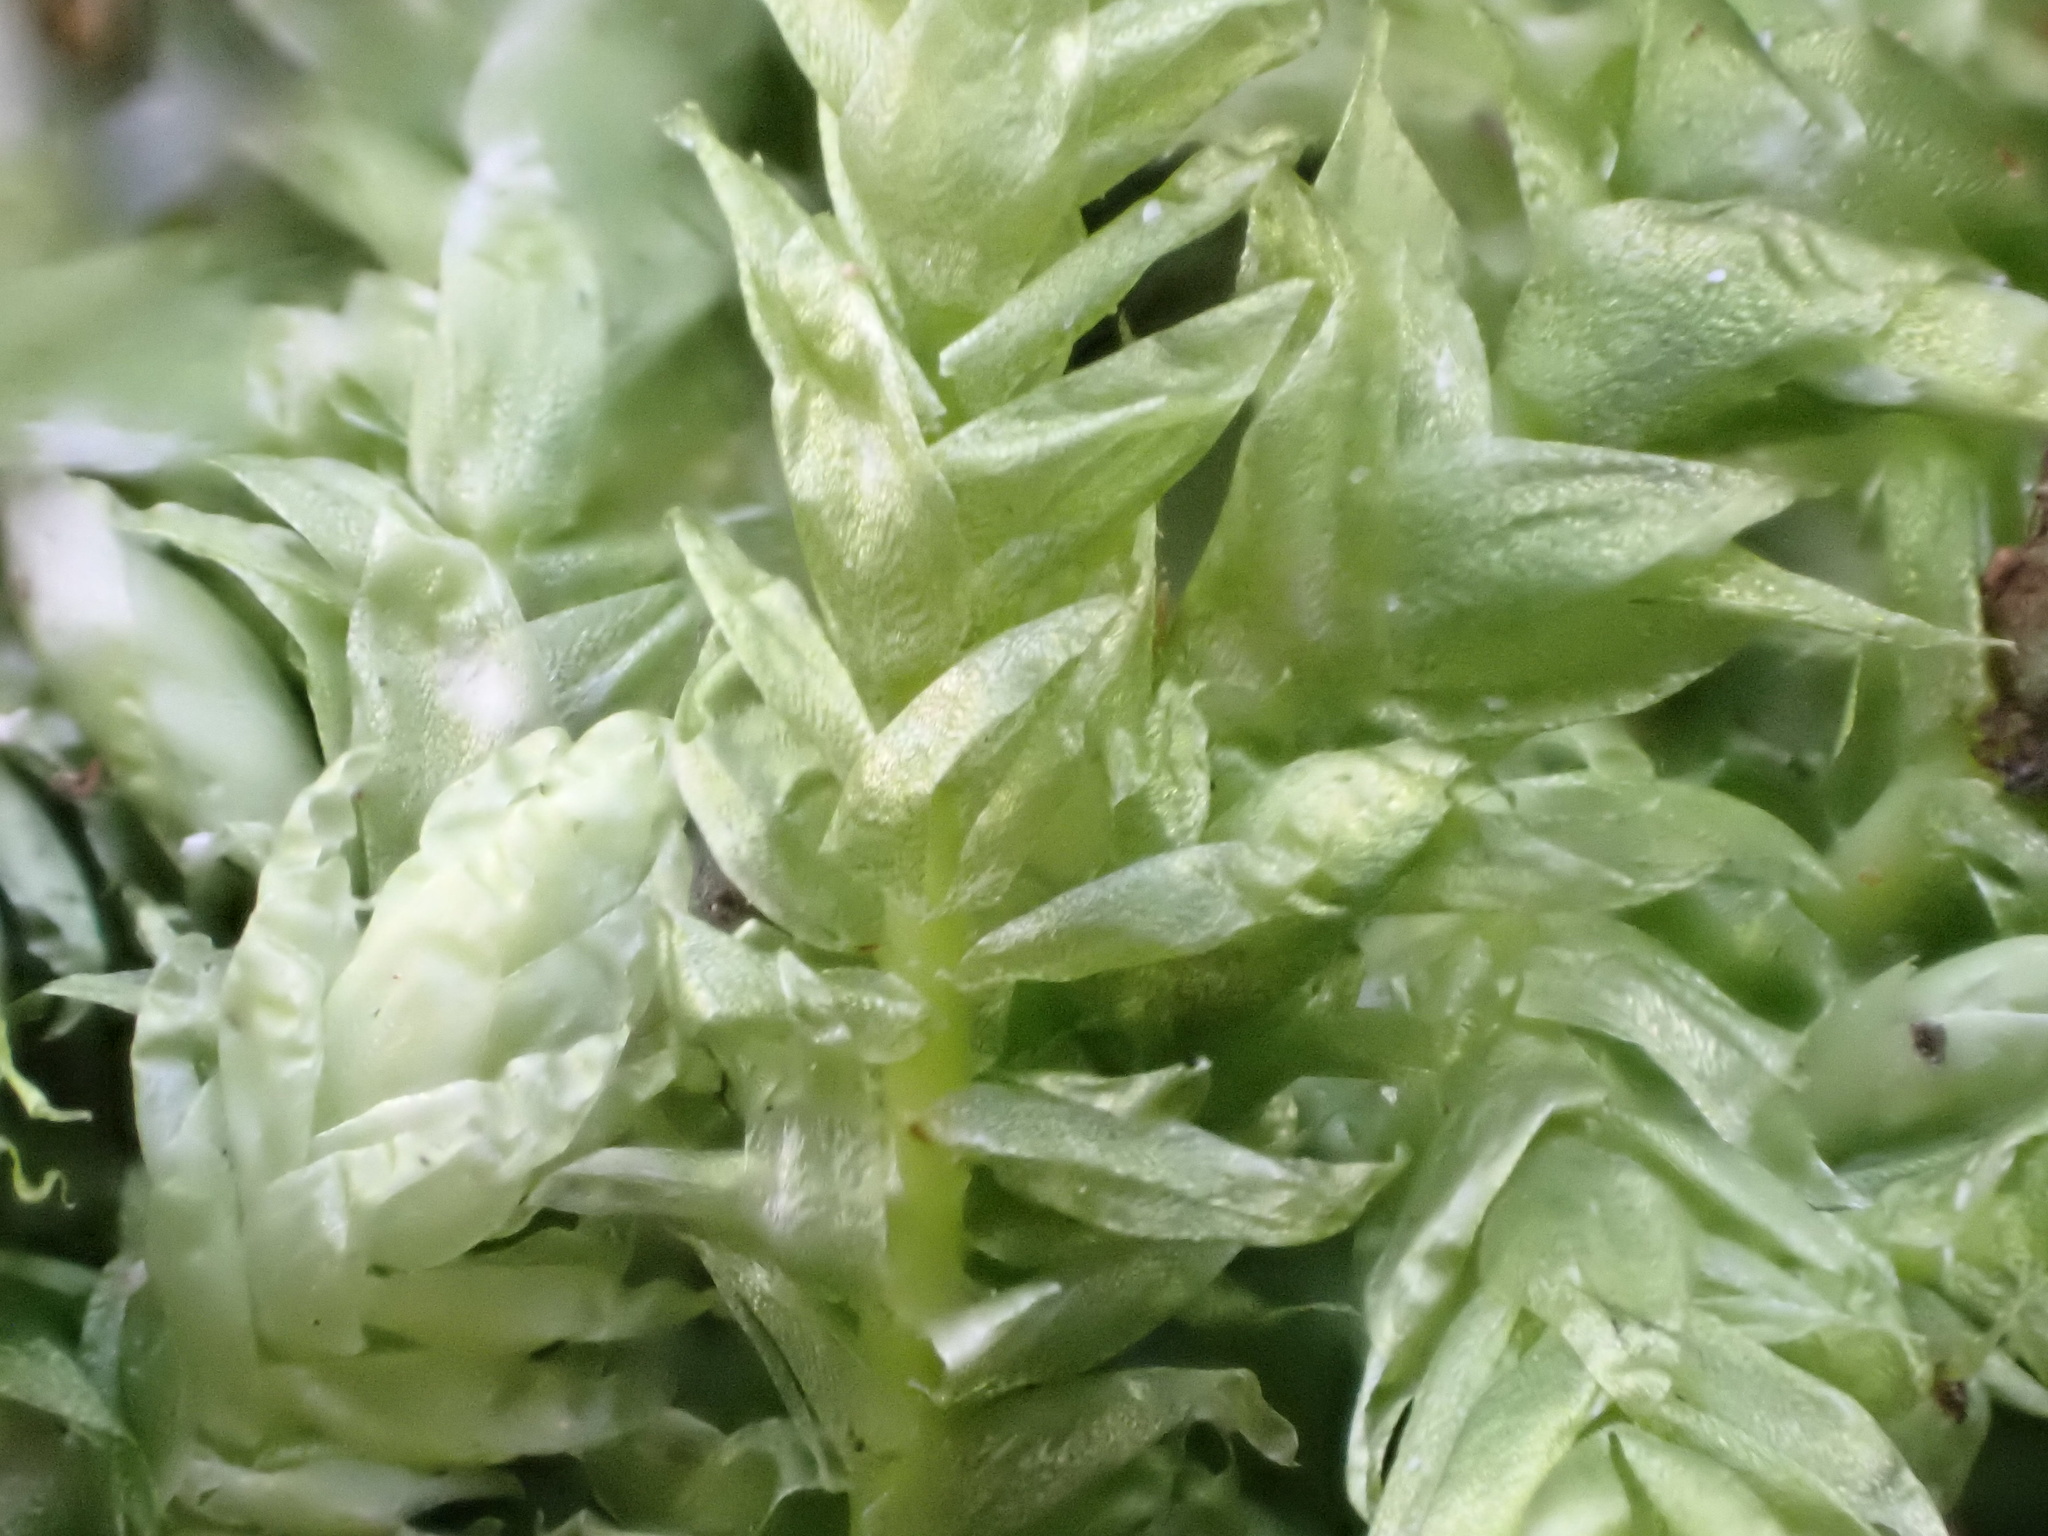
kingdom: Plantae
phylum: Bryophyta
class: Bryopsida
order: Hypnales
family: Plagiotheciaceae
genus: Plagiothecium
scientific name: Plagiothecium undulatum
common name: Waved silk-moss
